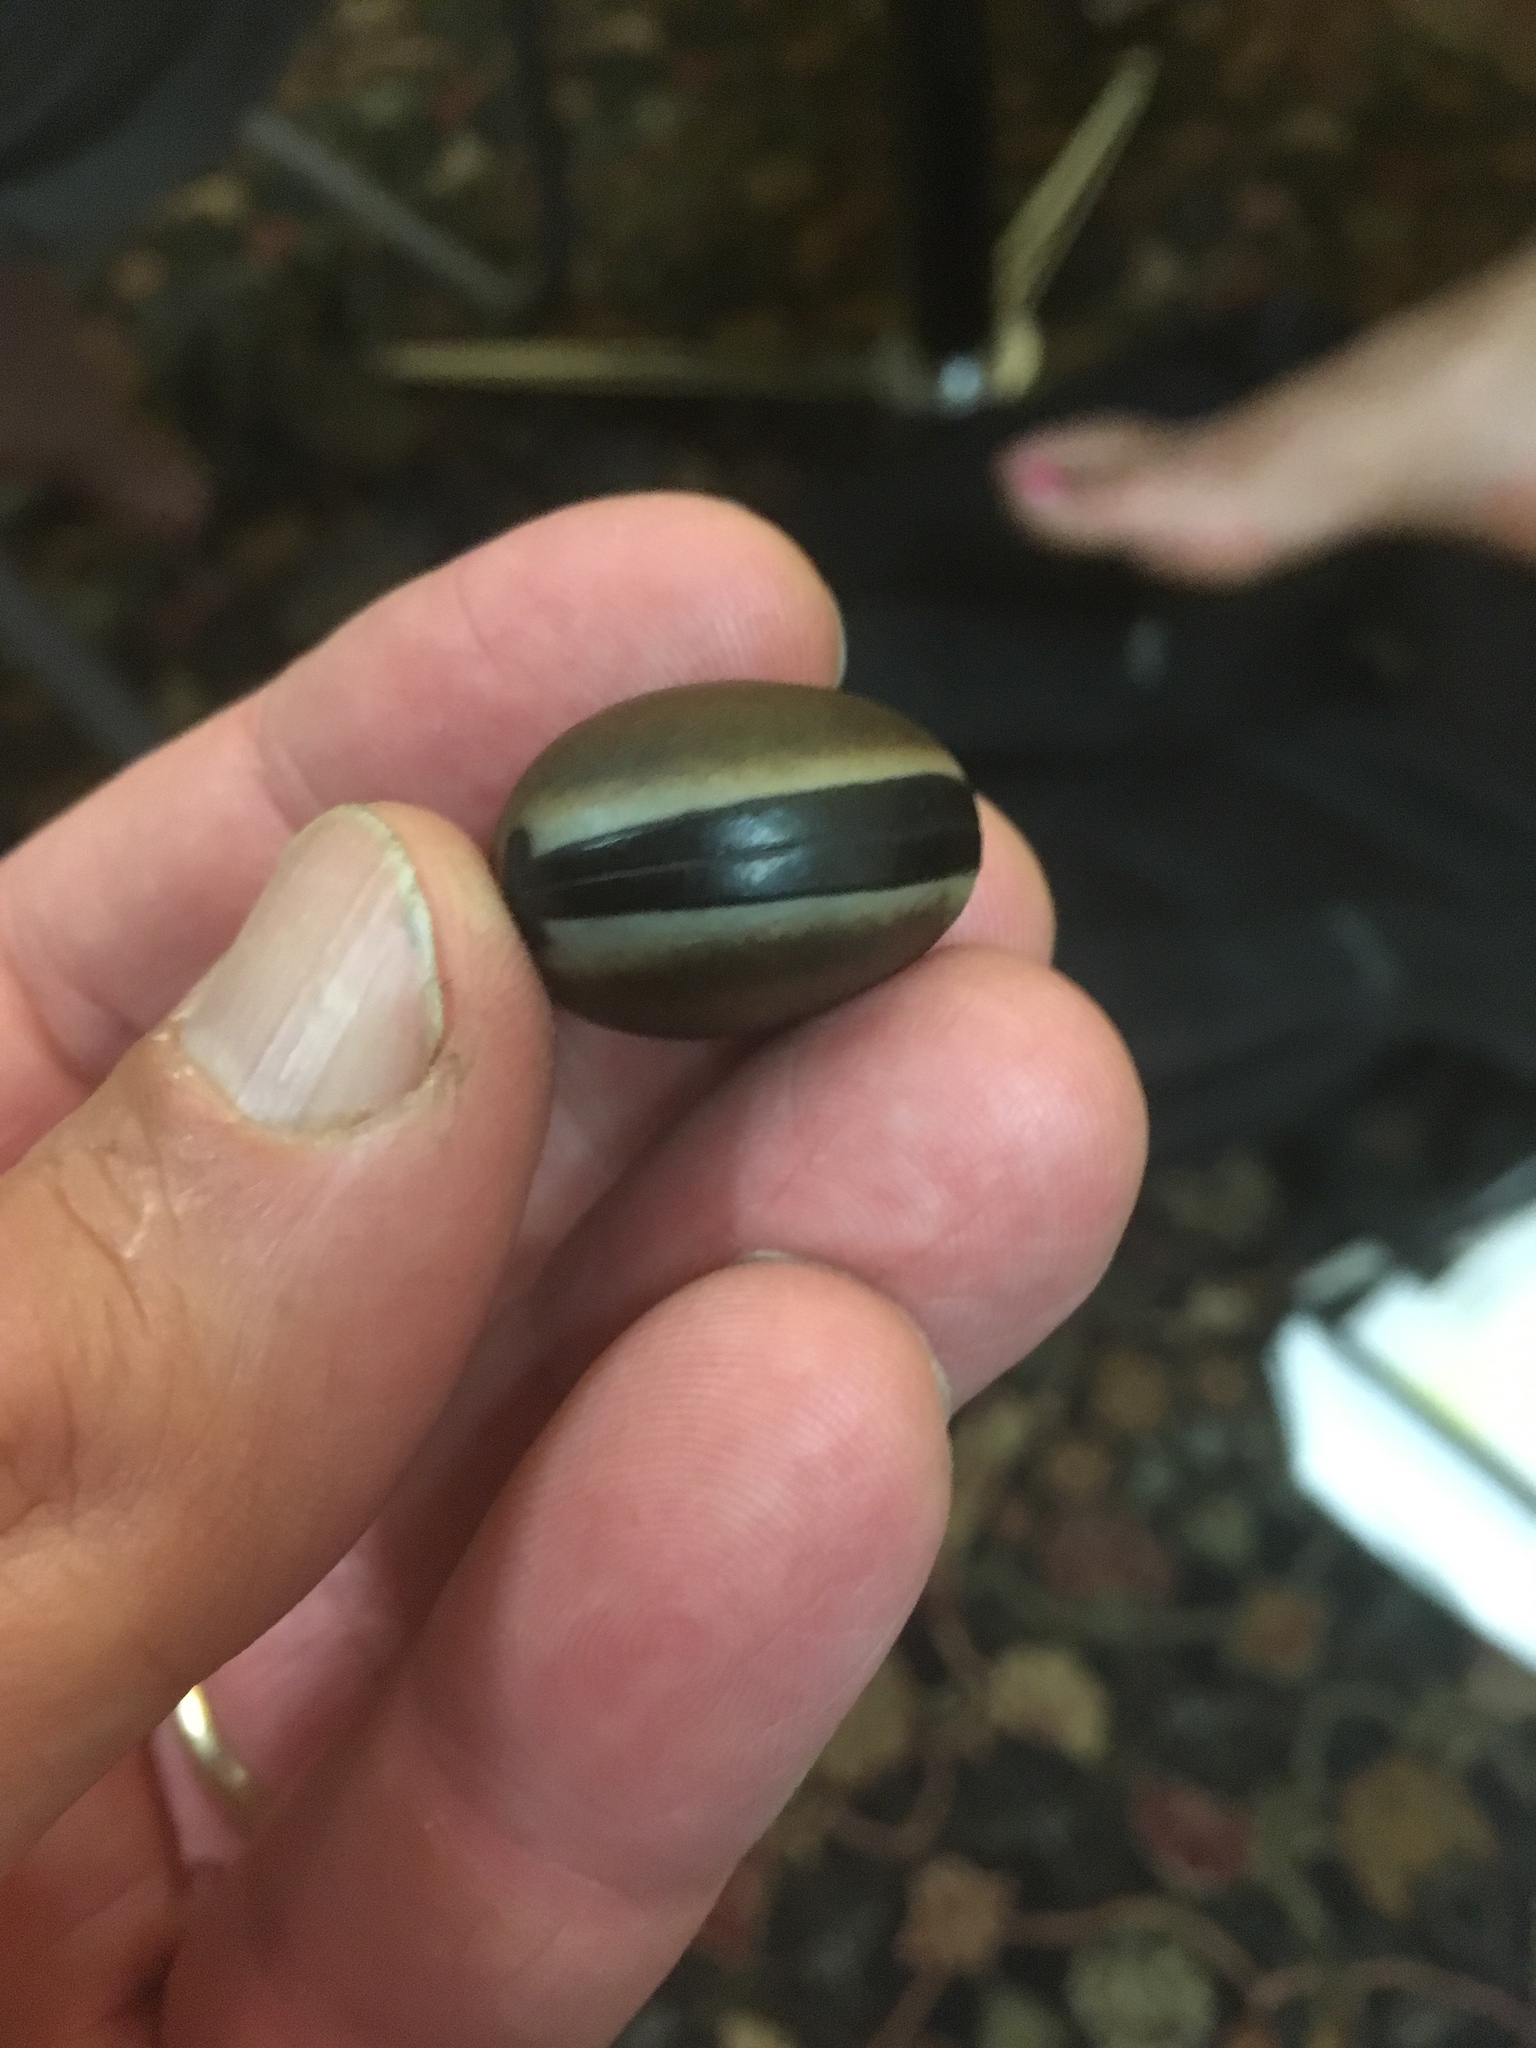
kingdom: Plantae
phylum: Tracheophyta
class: Magnoliopsida
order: Fabales
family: Fabaceae
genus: Mucuna
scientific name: Mucuna urens
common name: Red hamburger bean
